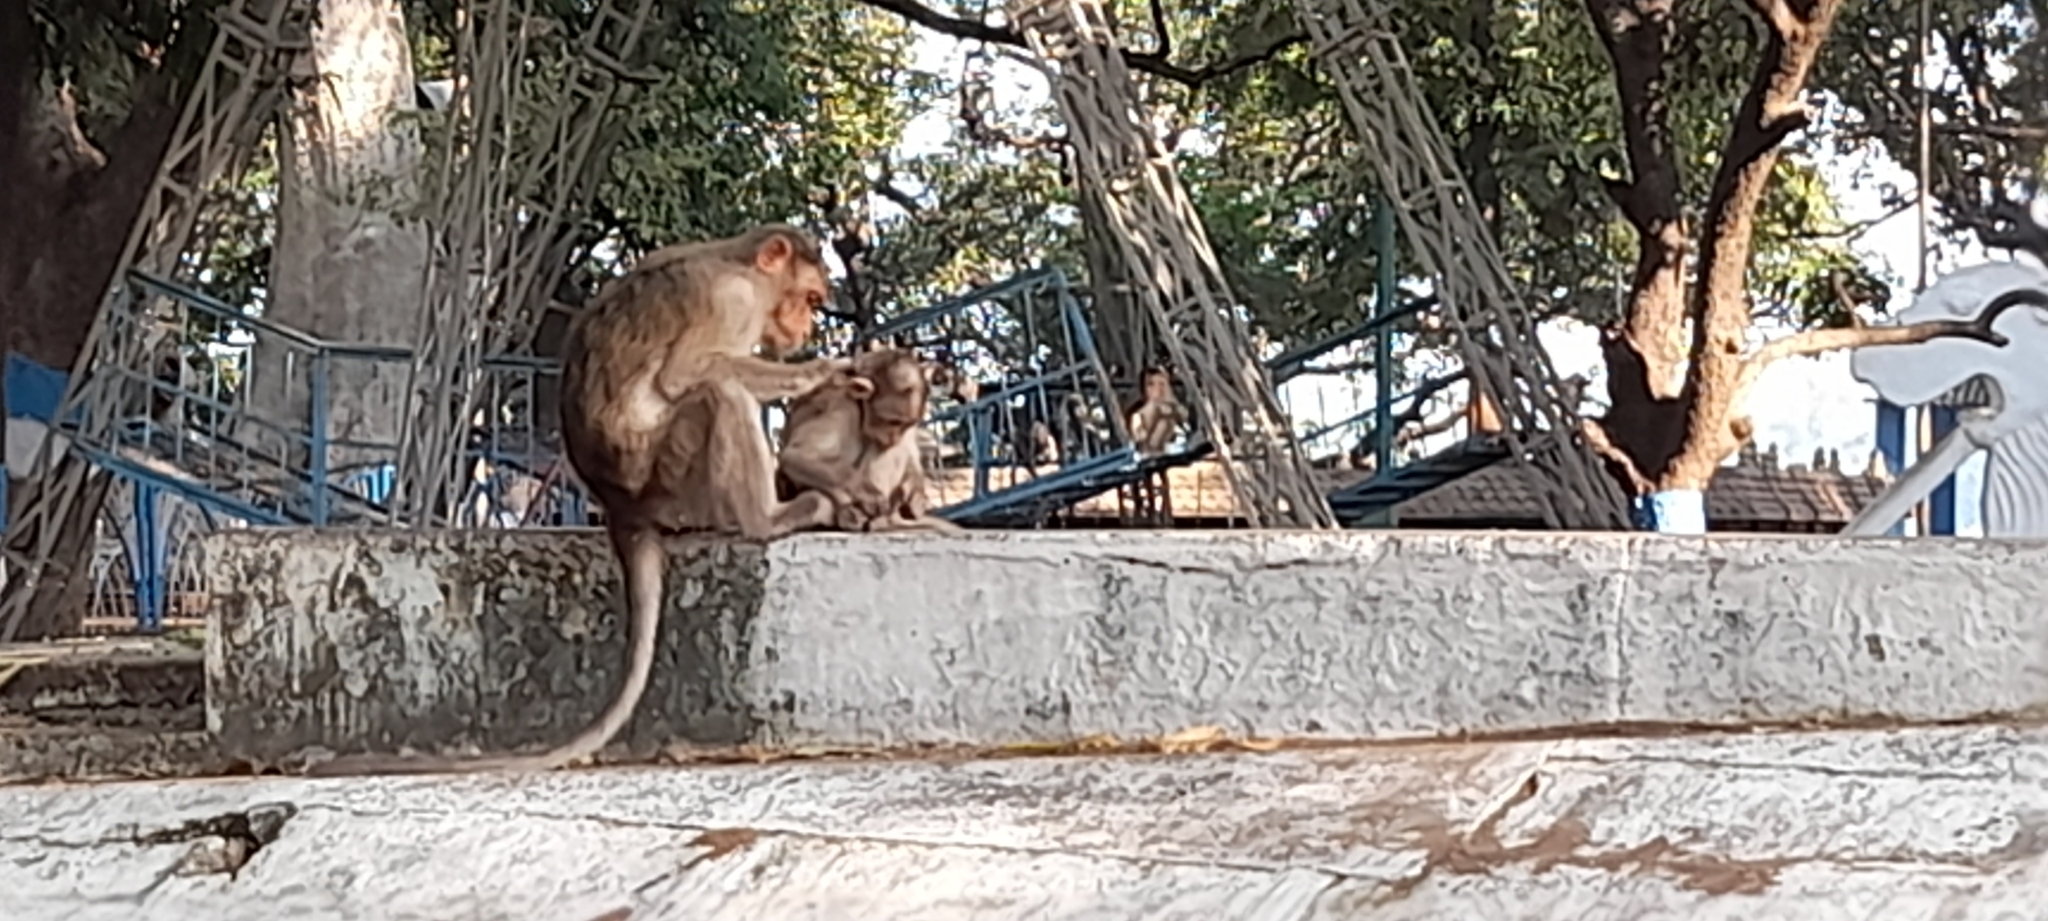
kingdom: Animalia
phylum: Chordata
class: Mammalia
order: Primates
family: Cercopithecidae
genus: Macaca
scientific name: Macaca radiata
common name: Bonnet macaque
